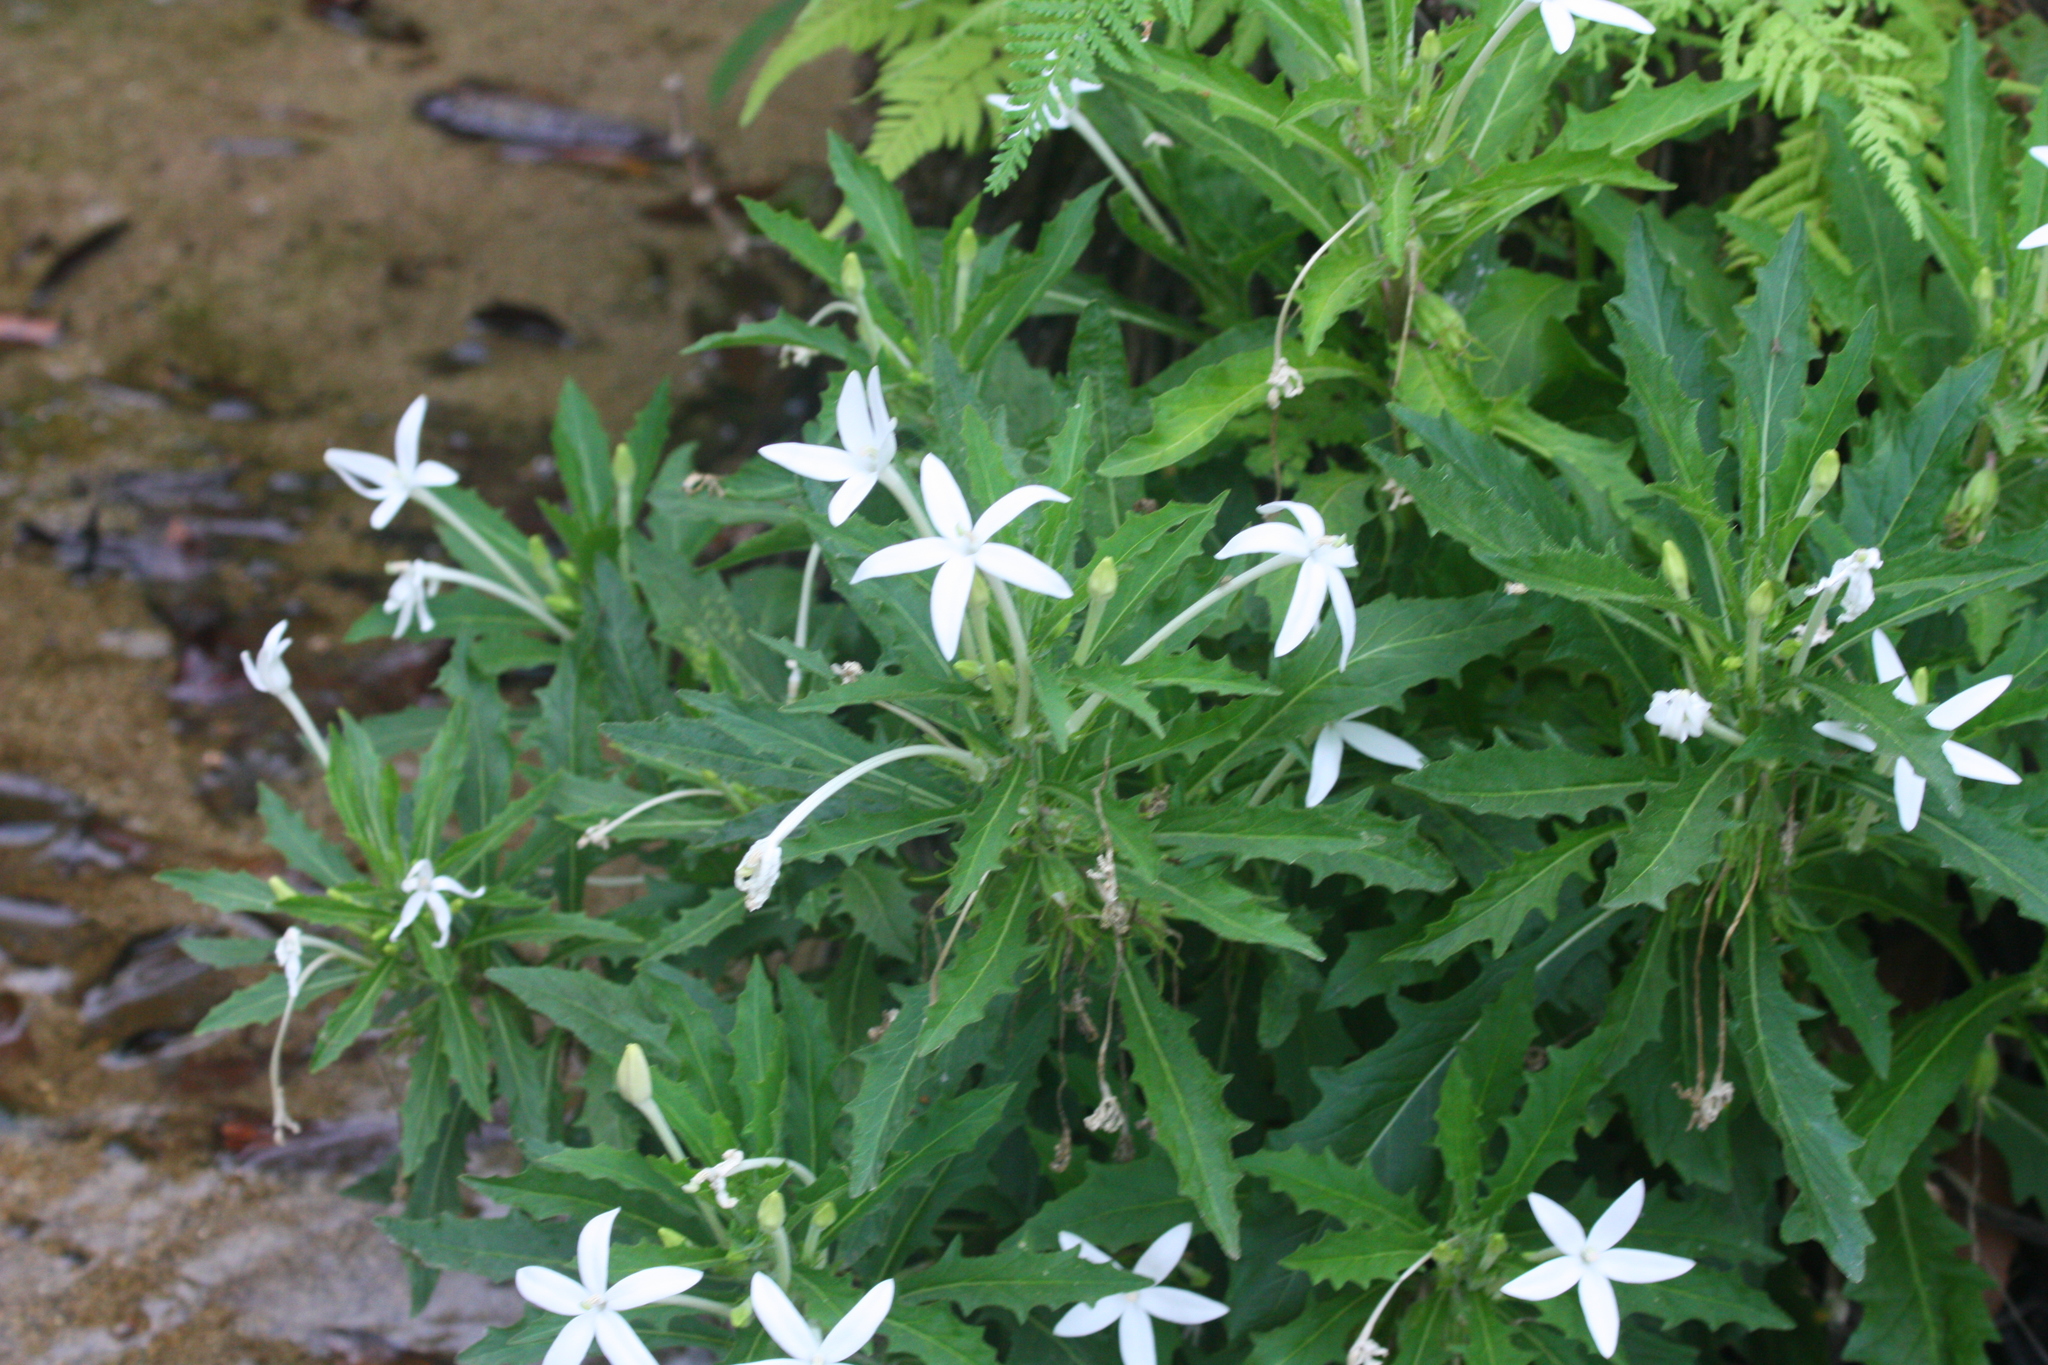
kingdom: Plantae
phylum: Tracheophyta
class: Magnoliopsida
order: Asterales
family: Campanulaceae
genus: Hippobroma
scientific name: Hippobroma longiflora
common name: Madamfate
